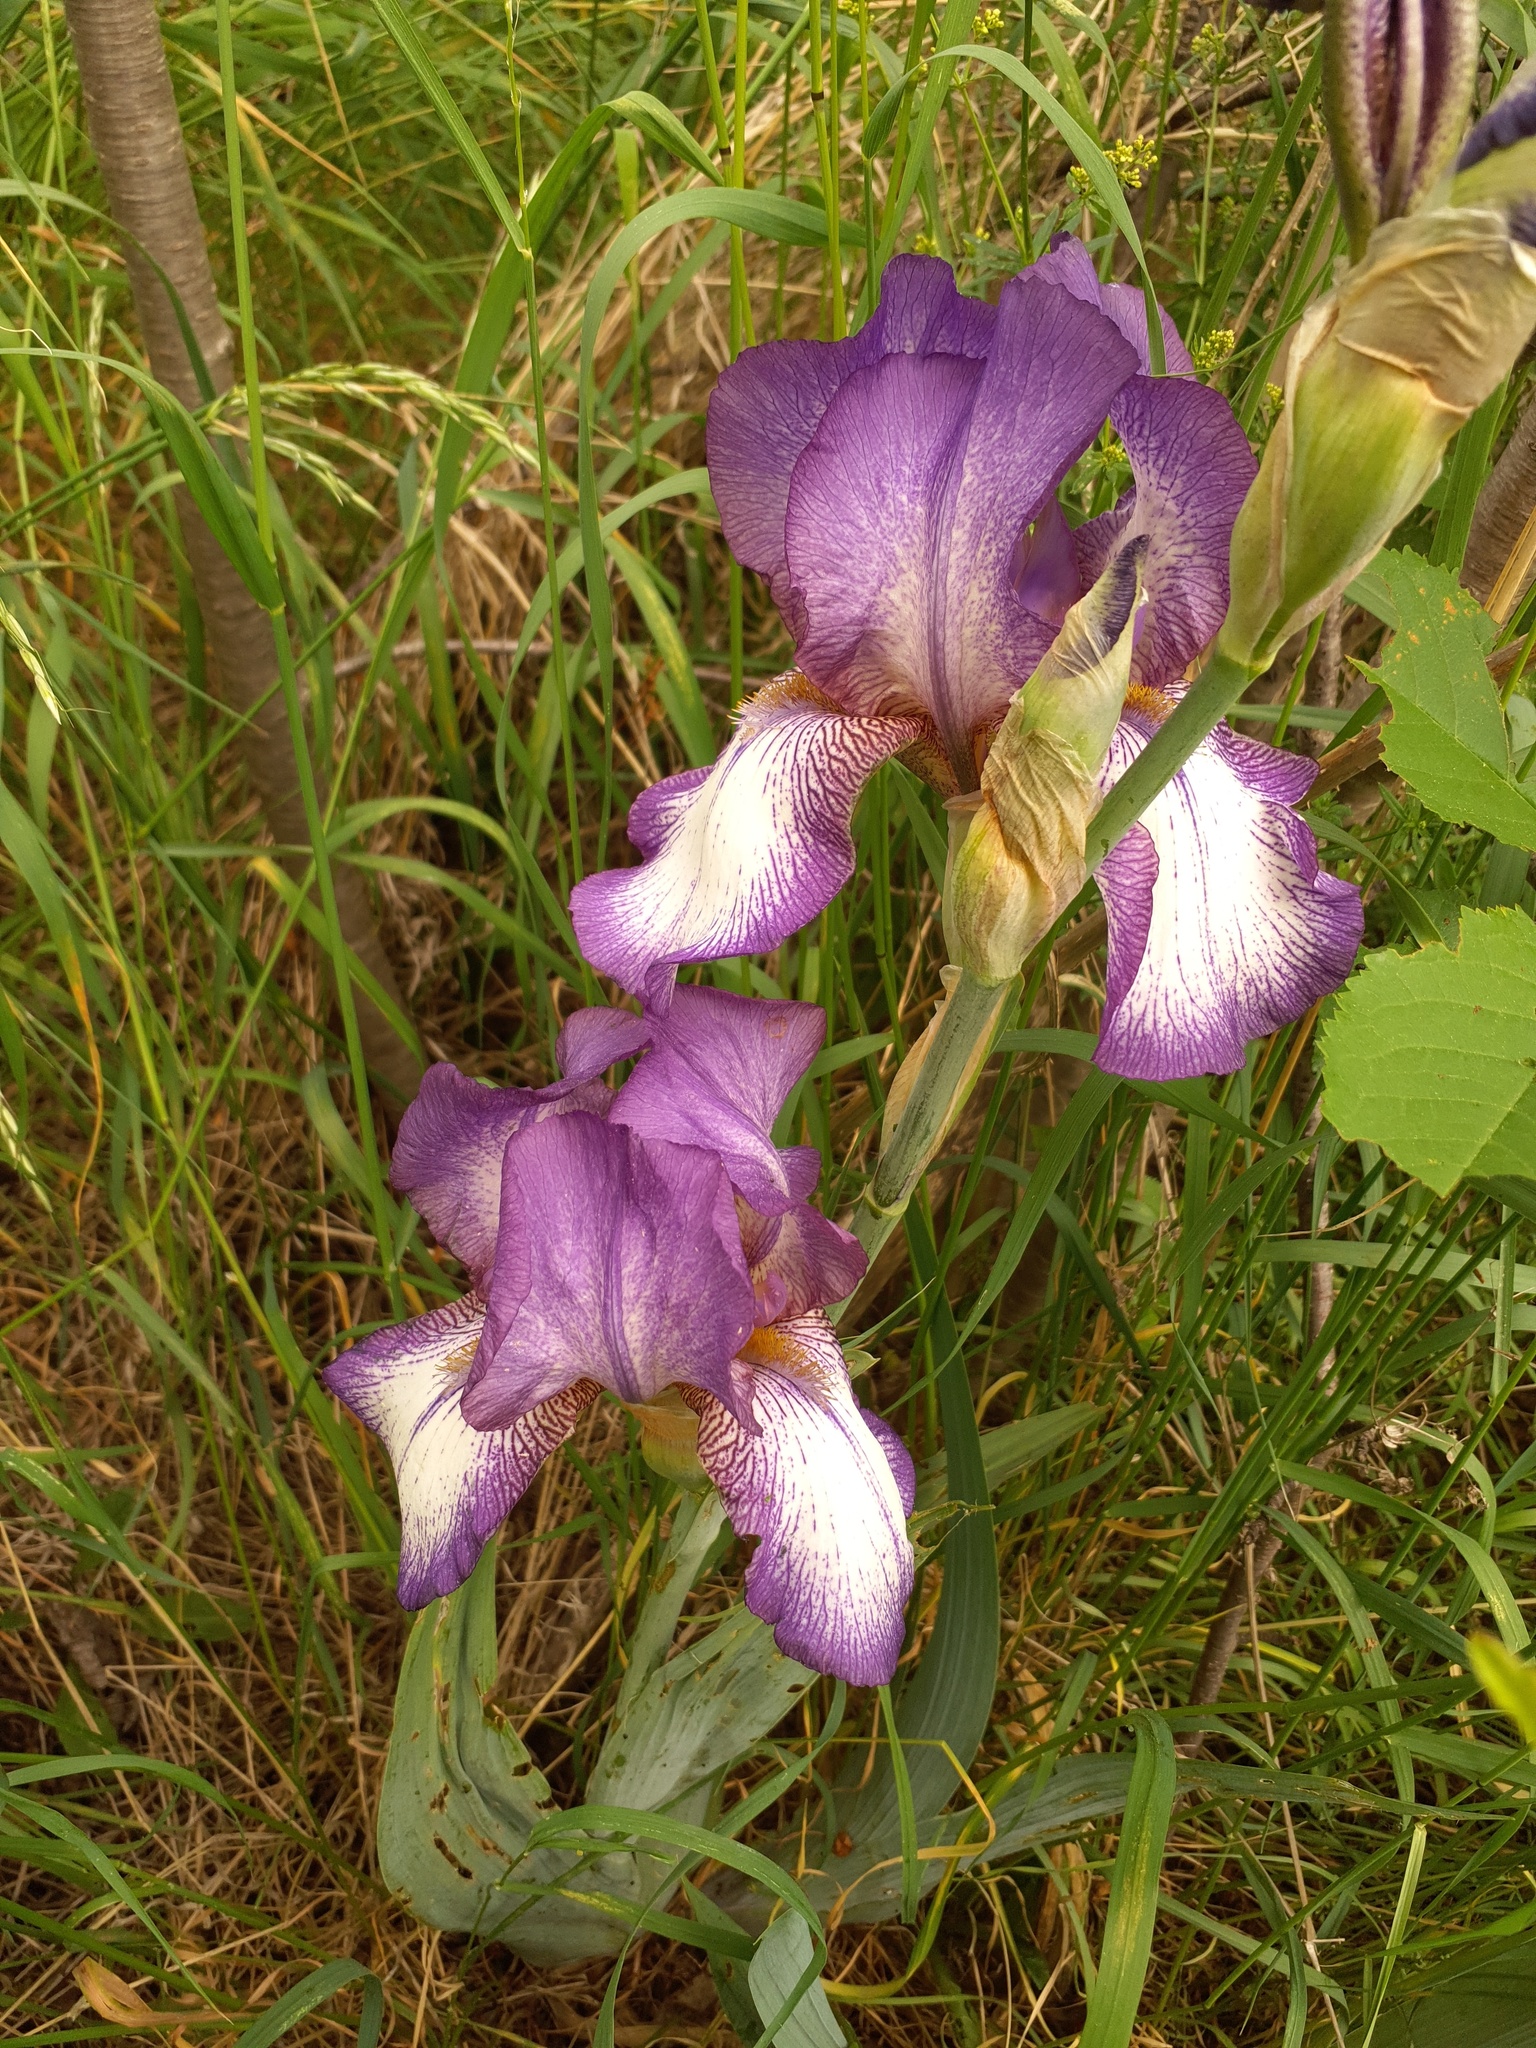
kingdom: Plantae
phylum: Tracheophyta
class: Liliopsida
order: Asparagales
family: Iridaceae
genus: Iris
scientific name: Iris hybrida
